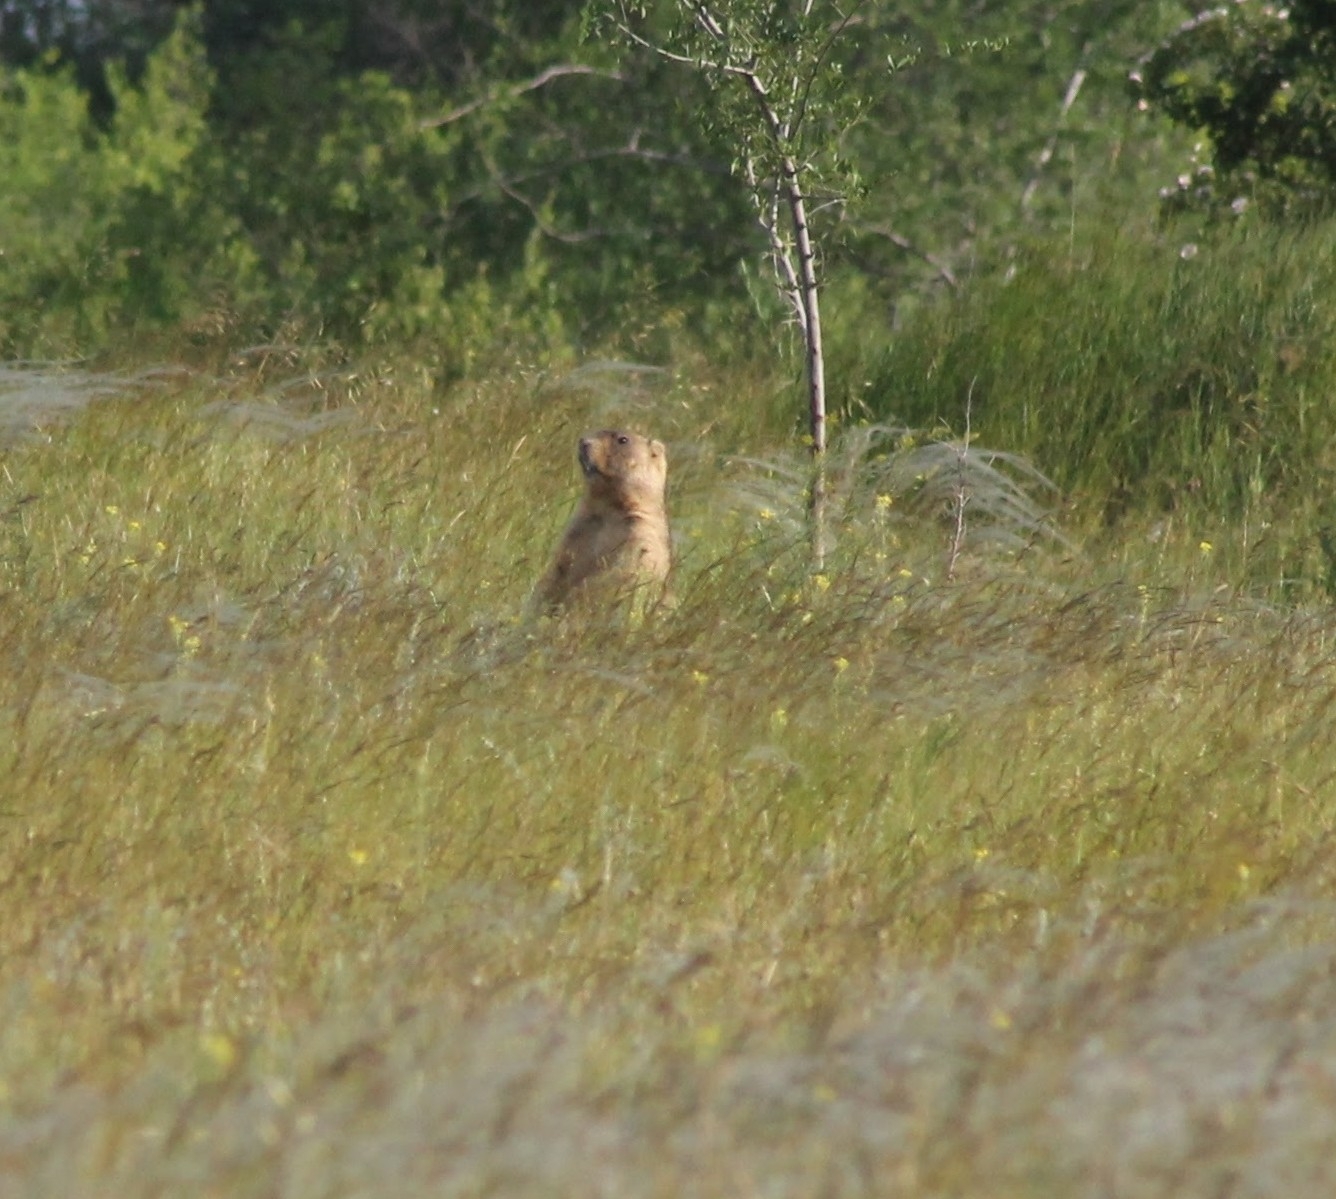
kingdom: Animalia
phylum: Chordata
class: Mammalia
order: Rodentia
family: Sciuridae
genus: Marmota
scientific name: Marmota bobak
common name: Bobak marmot
